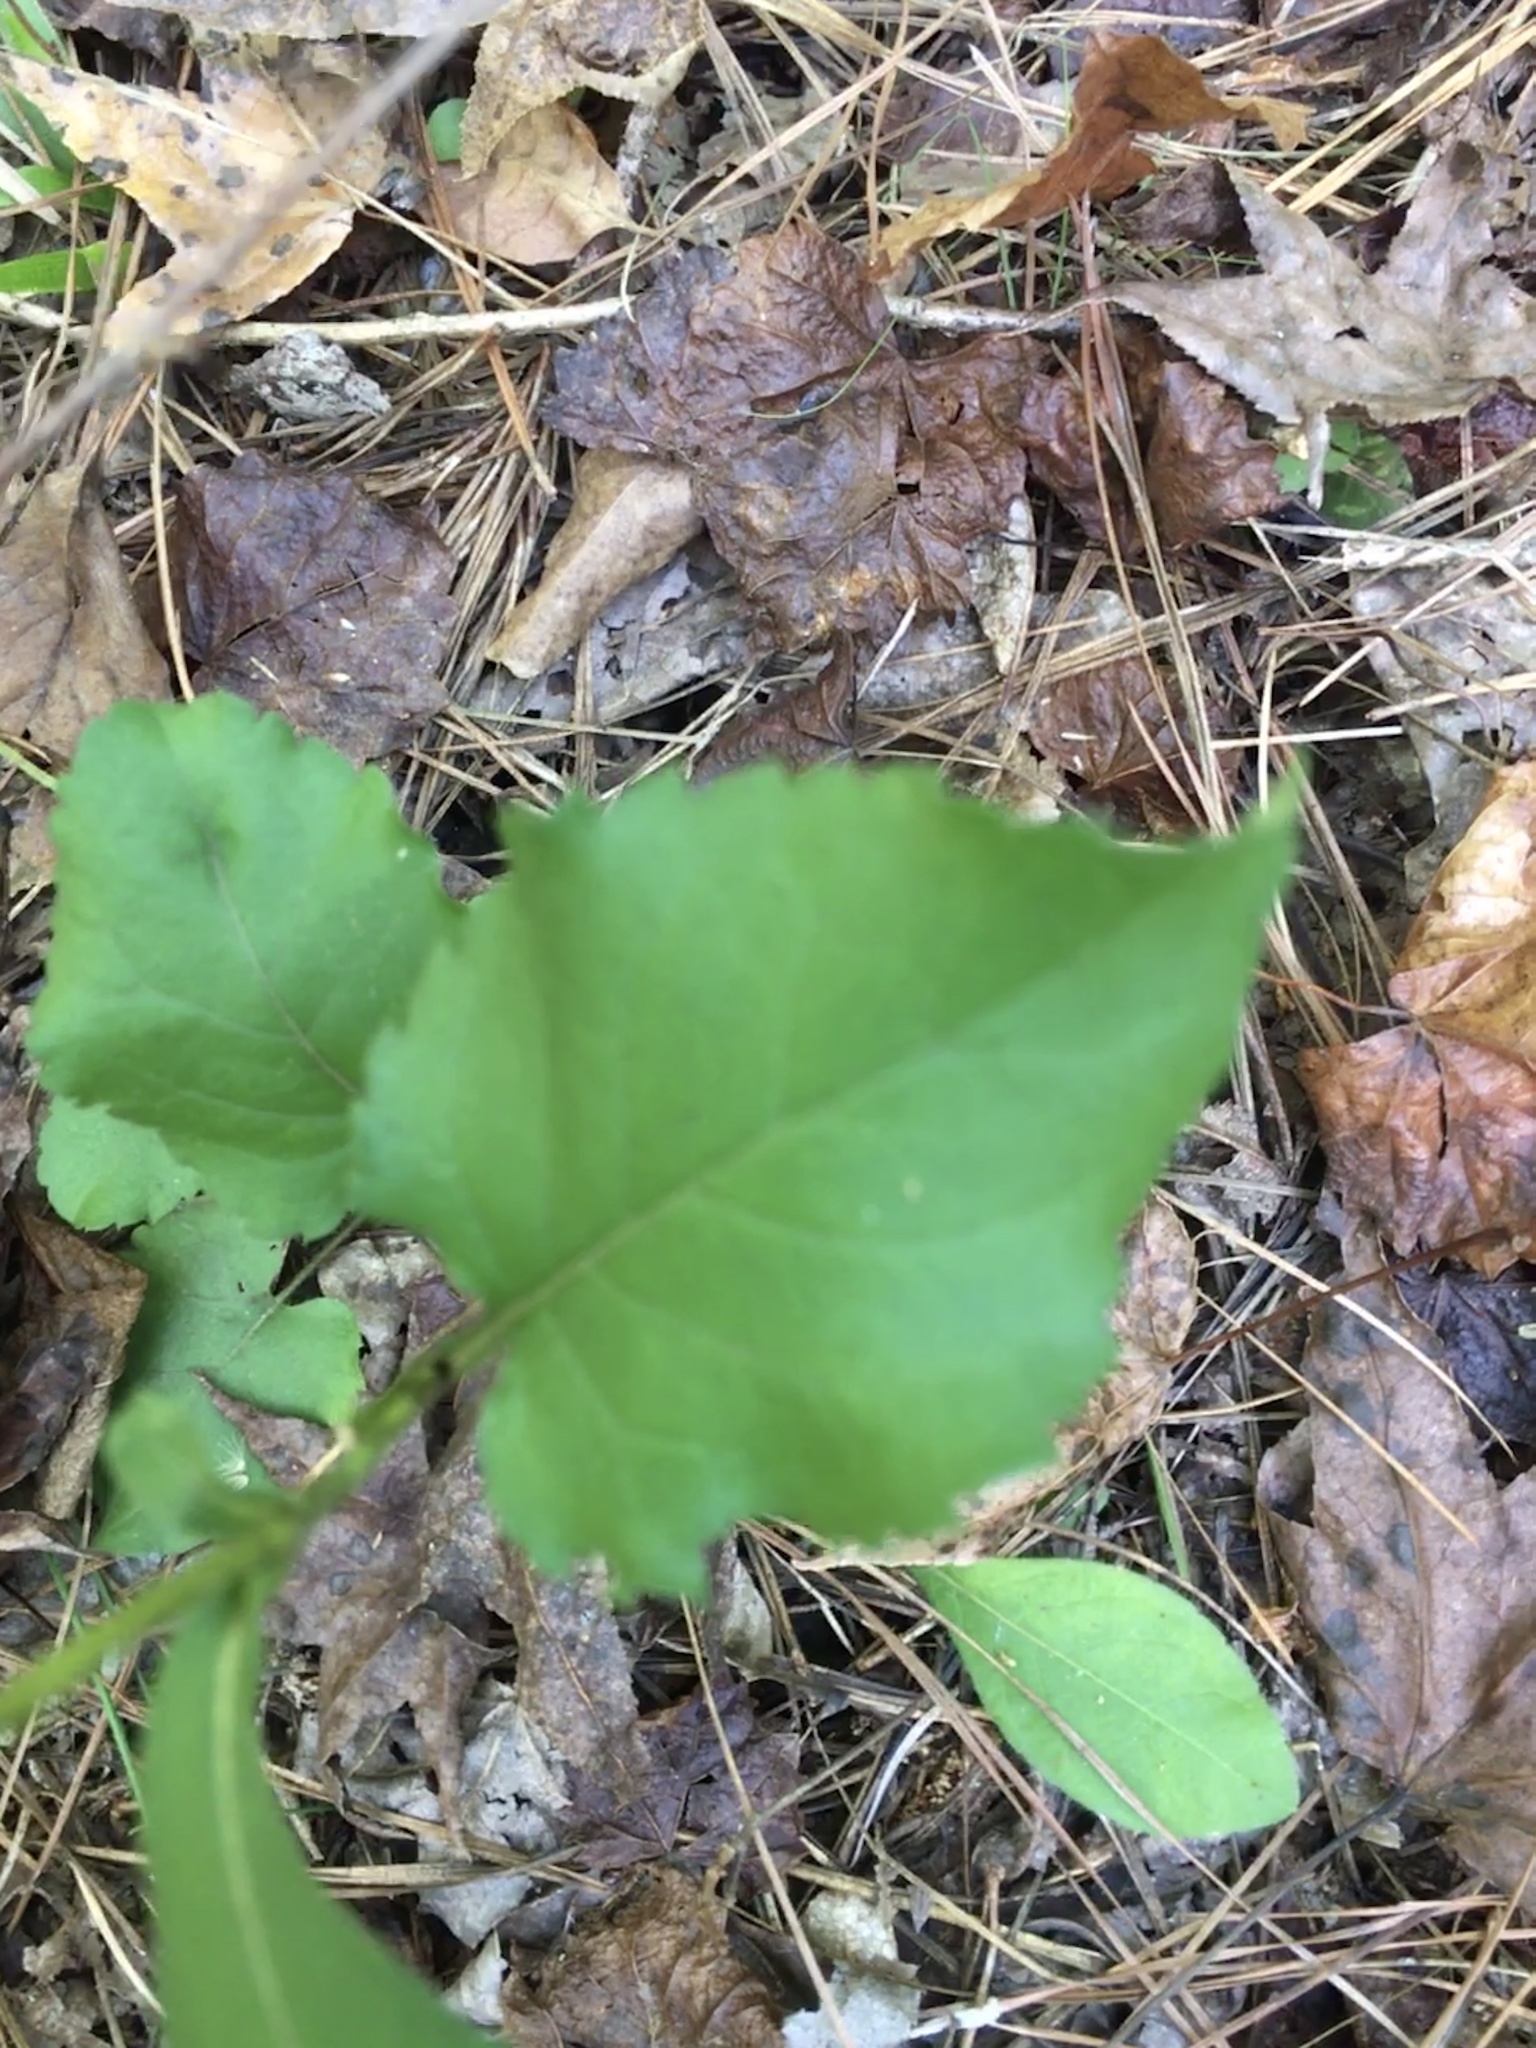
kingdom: Plantae
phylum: Tracheophyta
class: Magnoliopsida
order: Asterales
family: Asteraceae
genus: Eurybia
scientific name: Eurybia mirabilis
